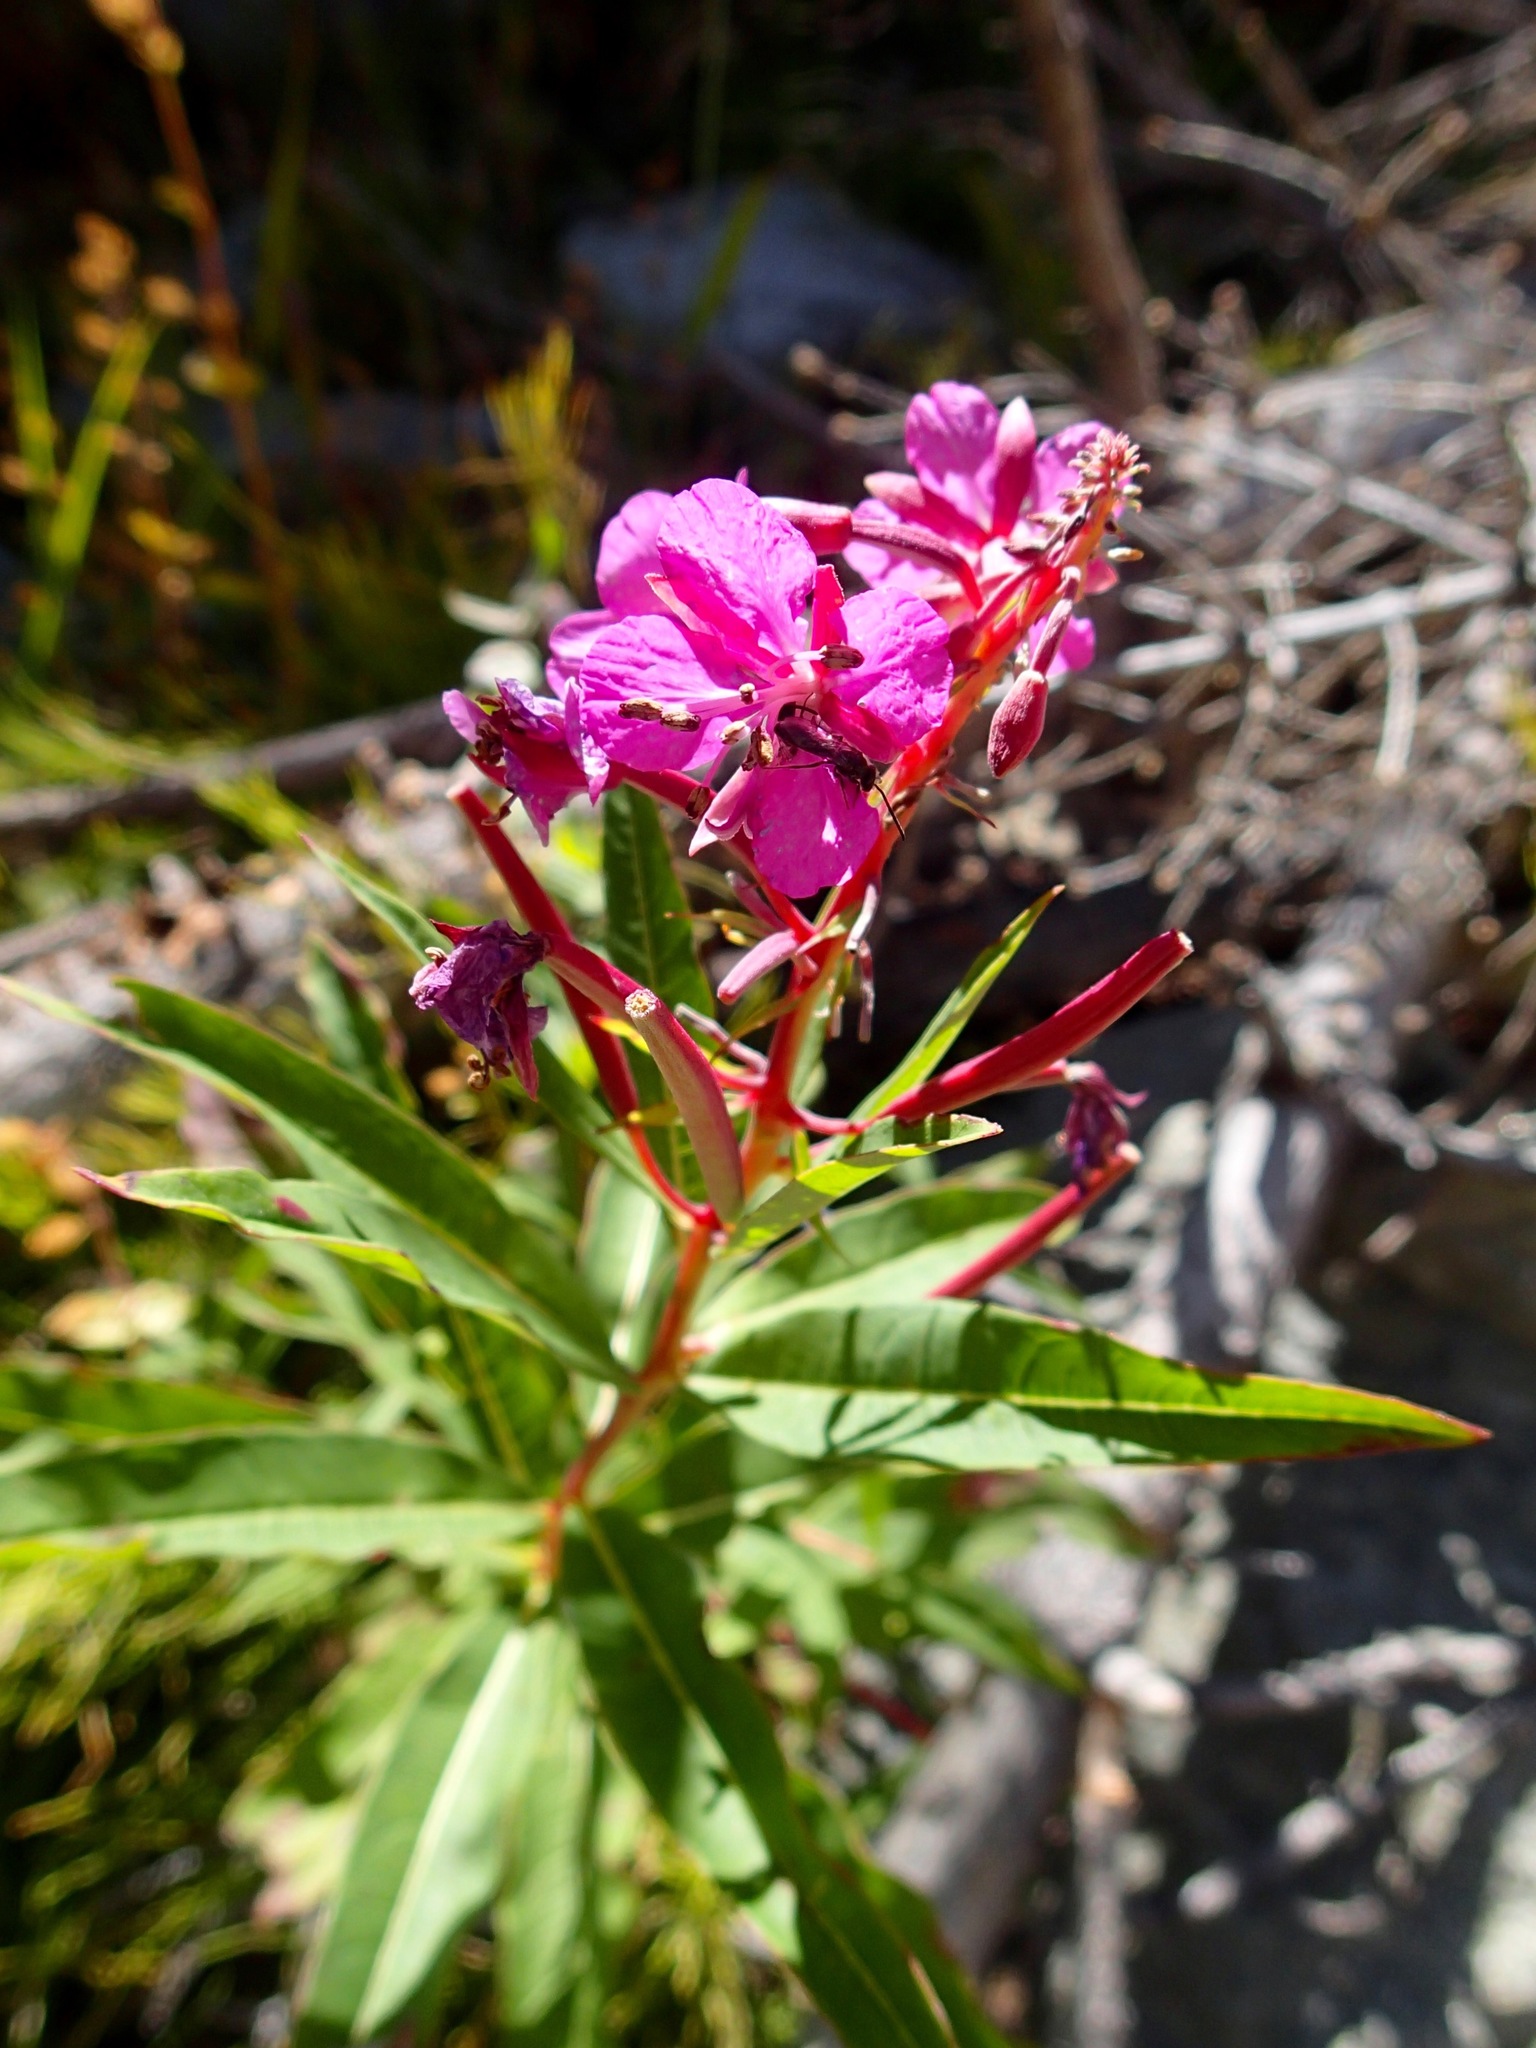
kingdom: Plantae
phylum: Tracheophyta
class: Magnoliopsida
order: Myrtales
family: Onagraceae
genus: Chamaenerion
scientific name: Chamaenerion angustifolium
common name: Fireweed
